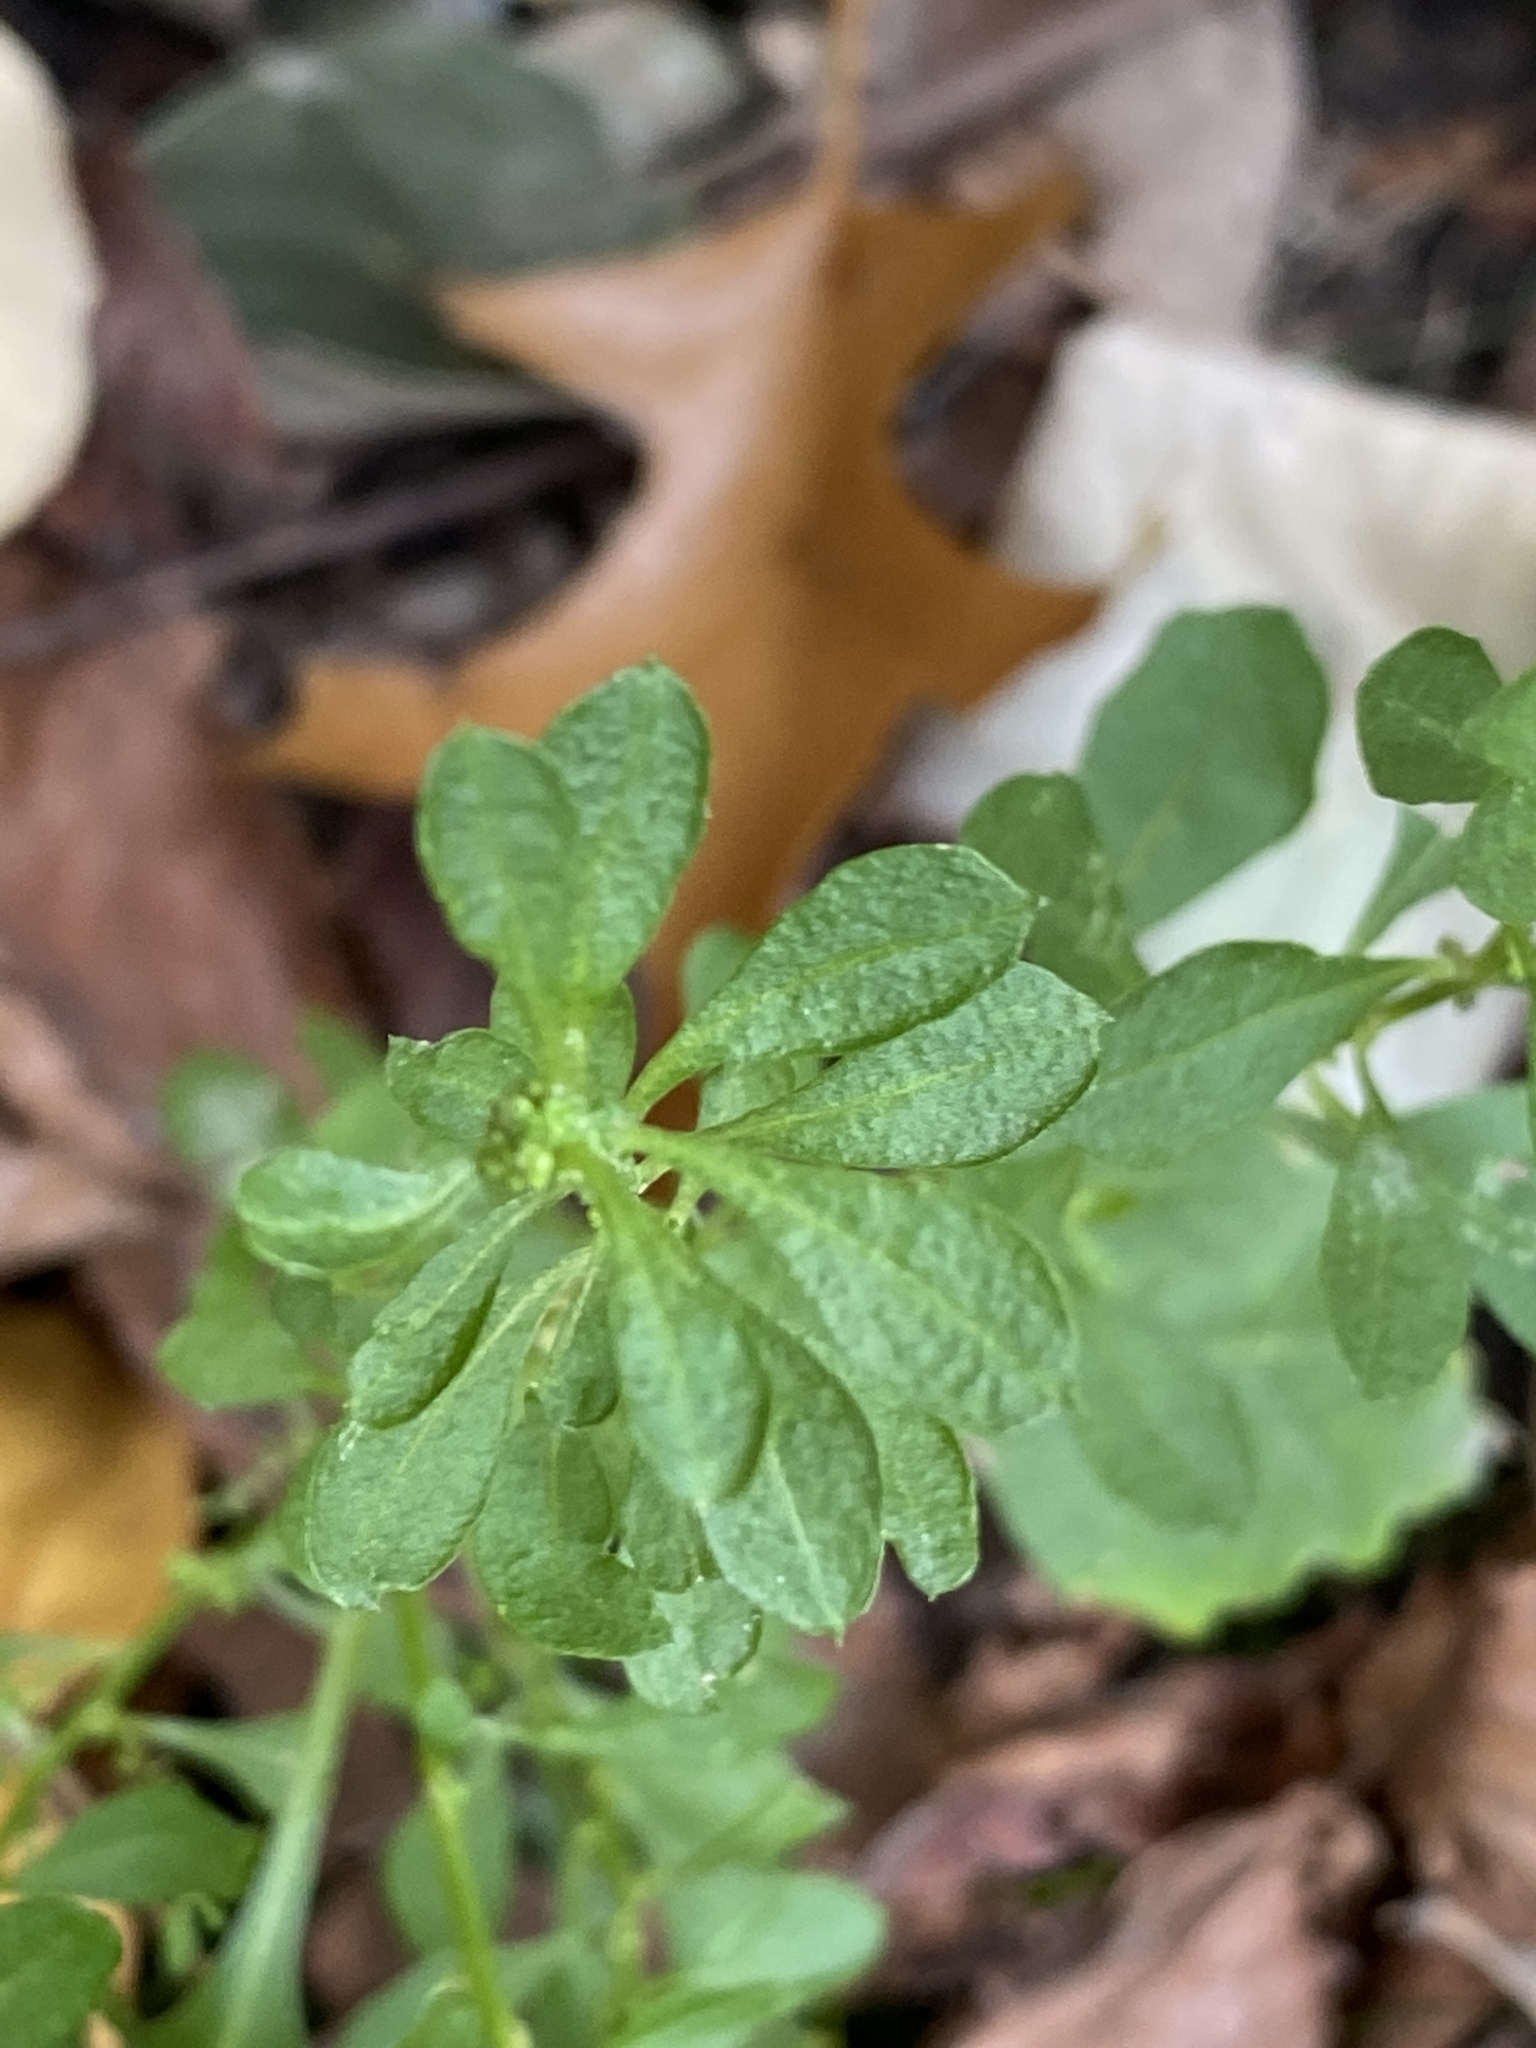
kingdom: Plantae
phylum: Tracheophyta
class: Magnoliopsida
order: Caryophyllales
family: Amaranthaceae
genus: Dysphania
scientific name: Dysphania ambrosioides
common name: Wormseed
